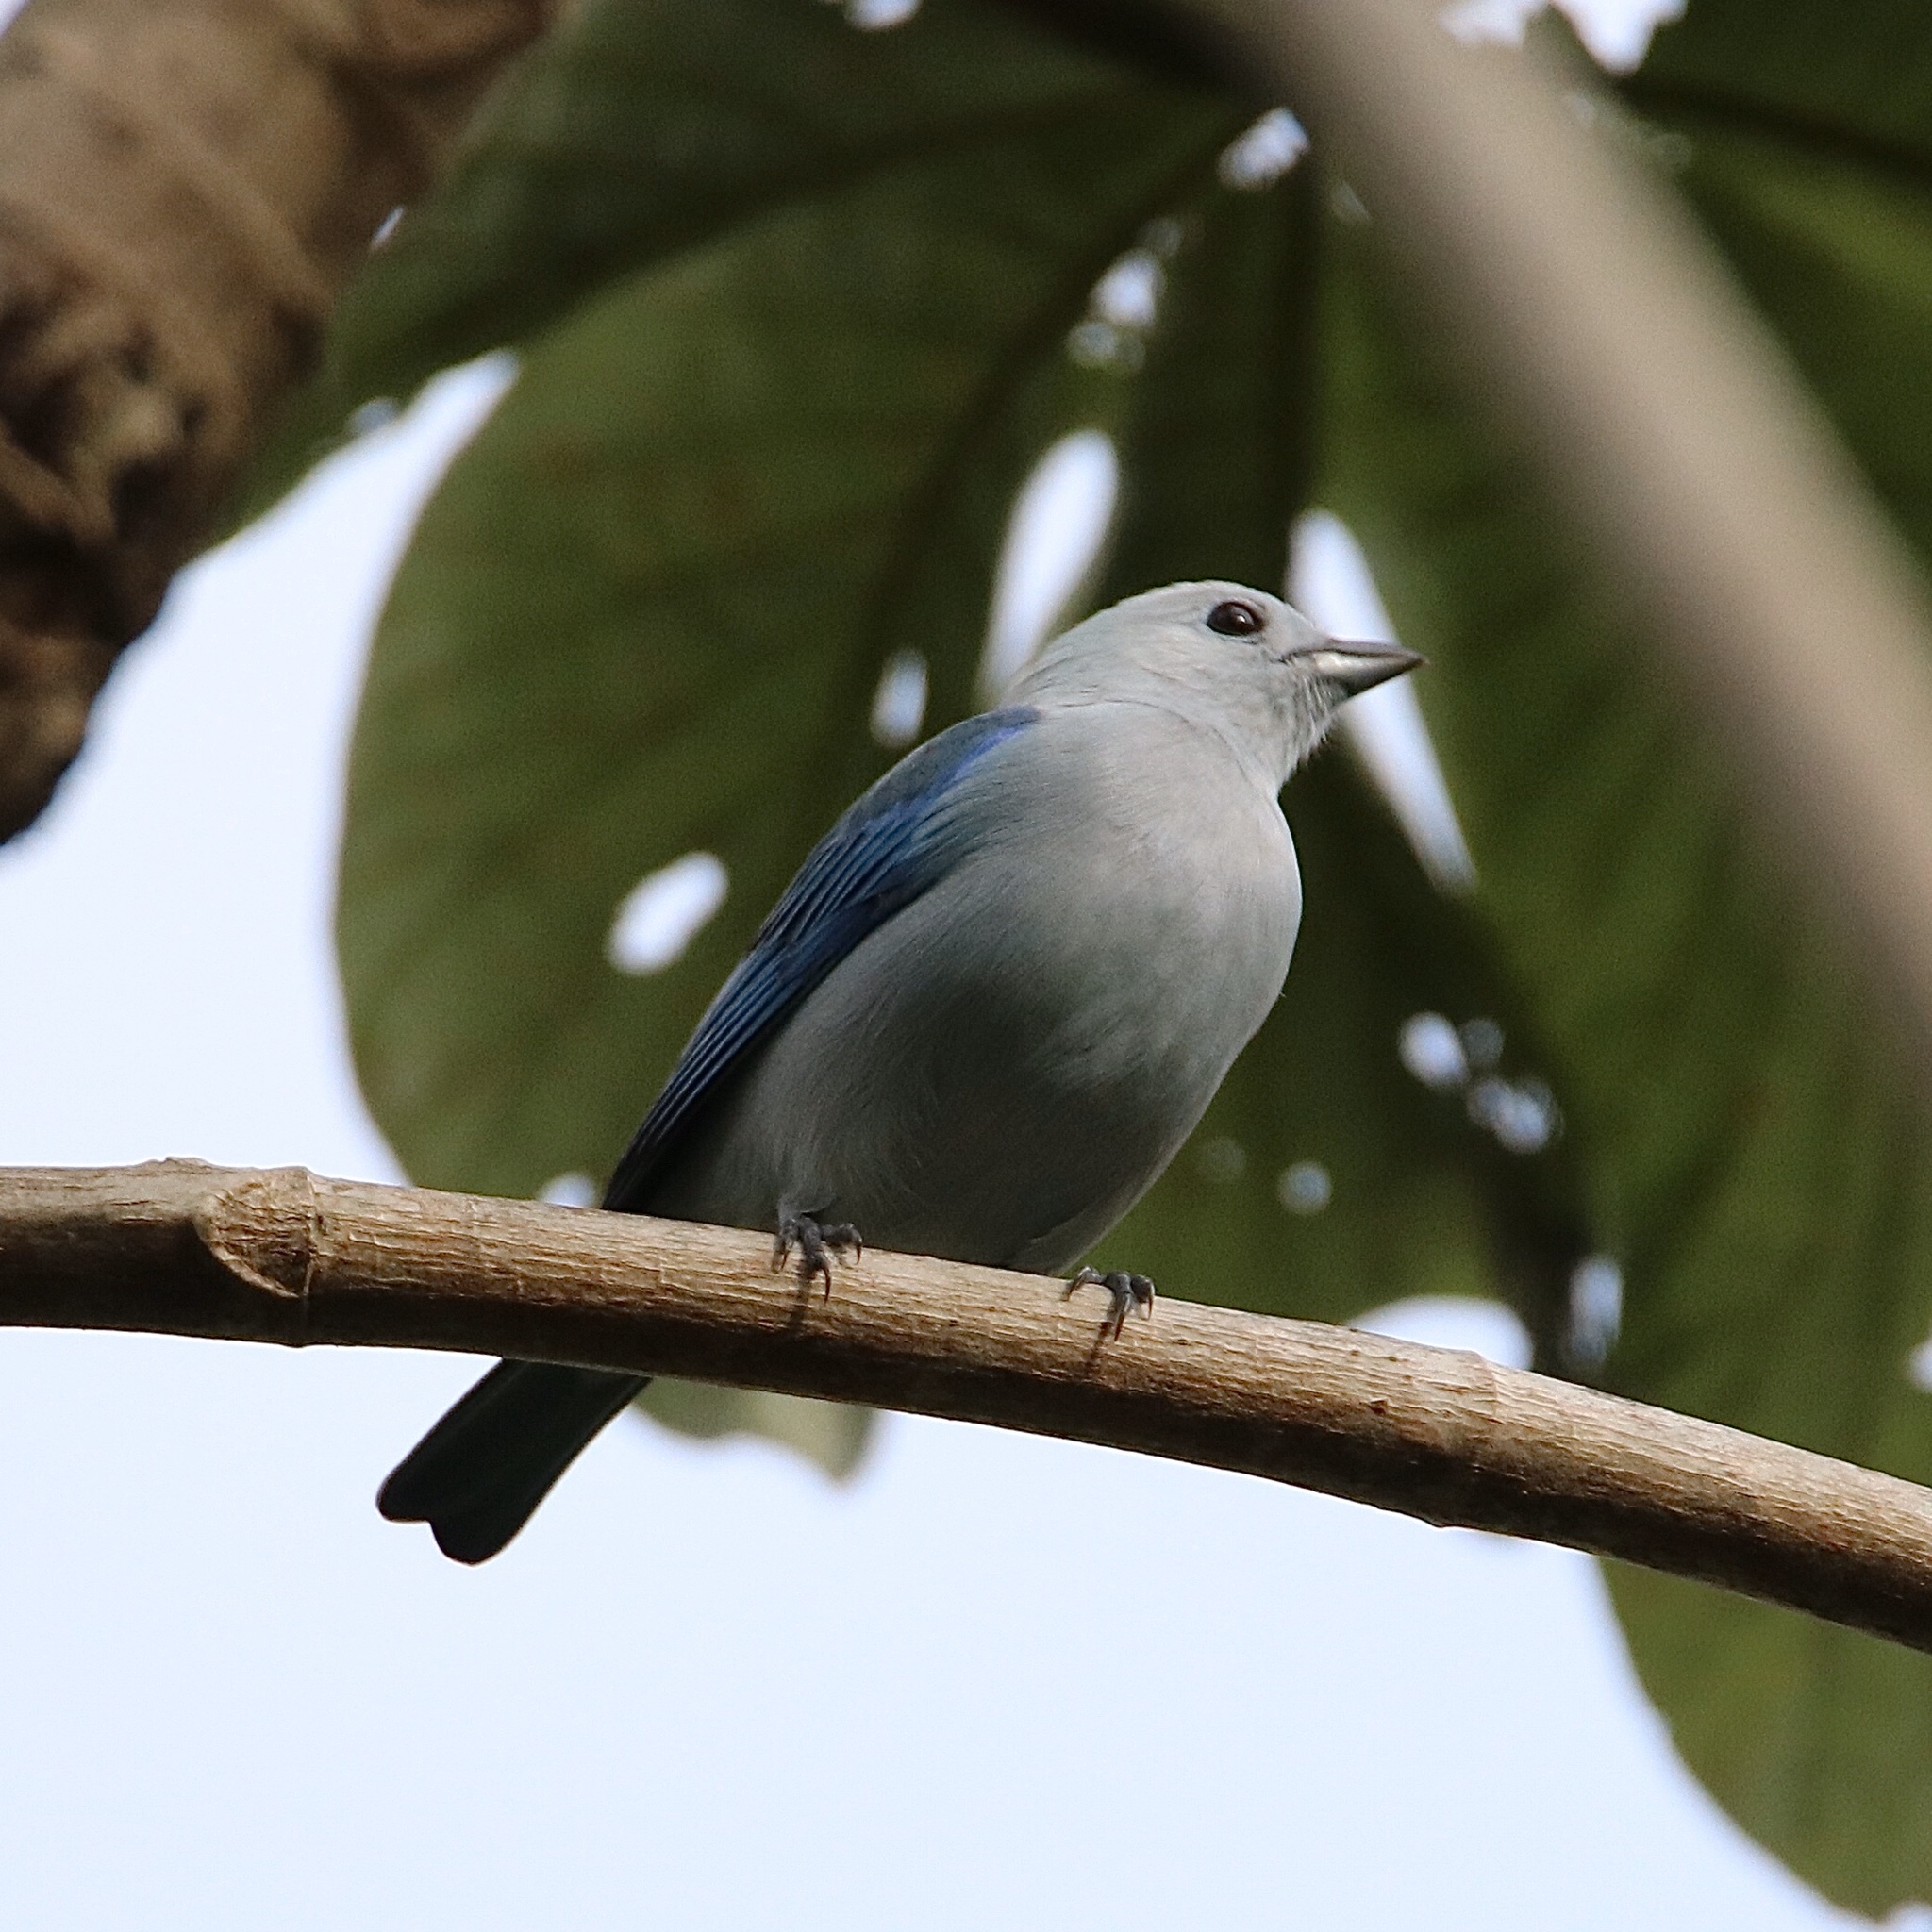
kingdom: Animalia
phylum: Chordata
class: Aves
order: Passeriformes
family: Thraupidae
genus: Thraupis
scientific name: Thraupis episcopus
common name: Blue-grey tanager
